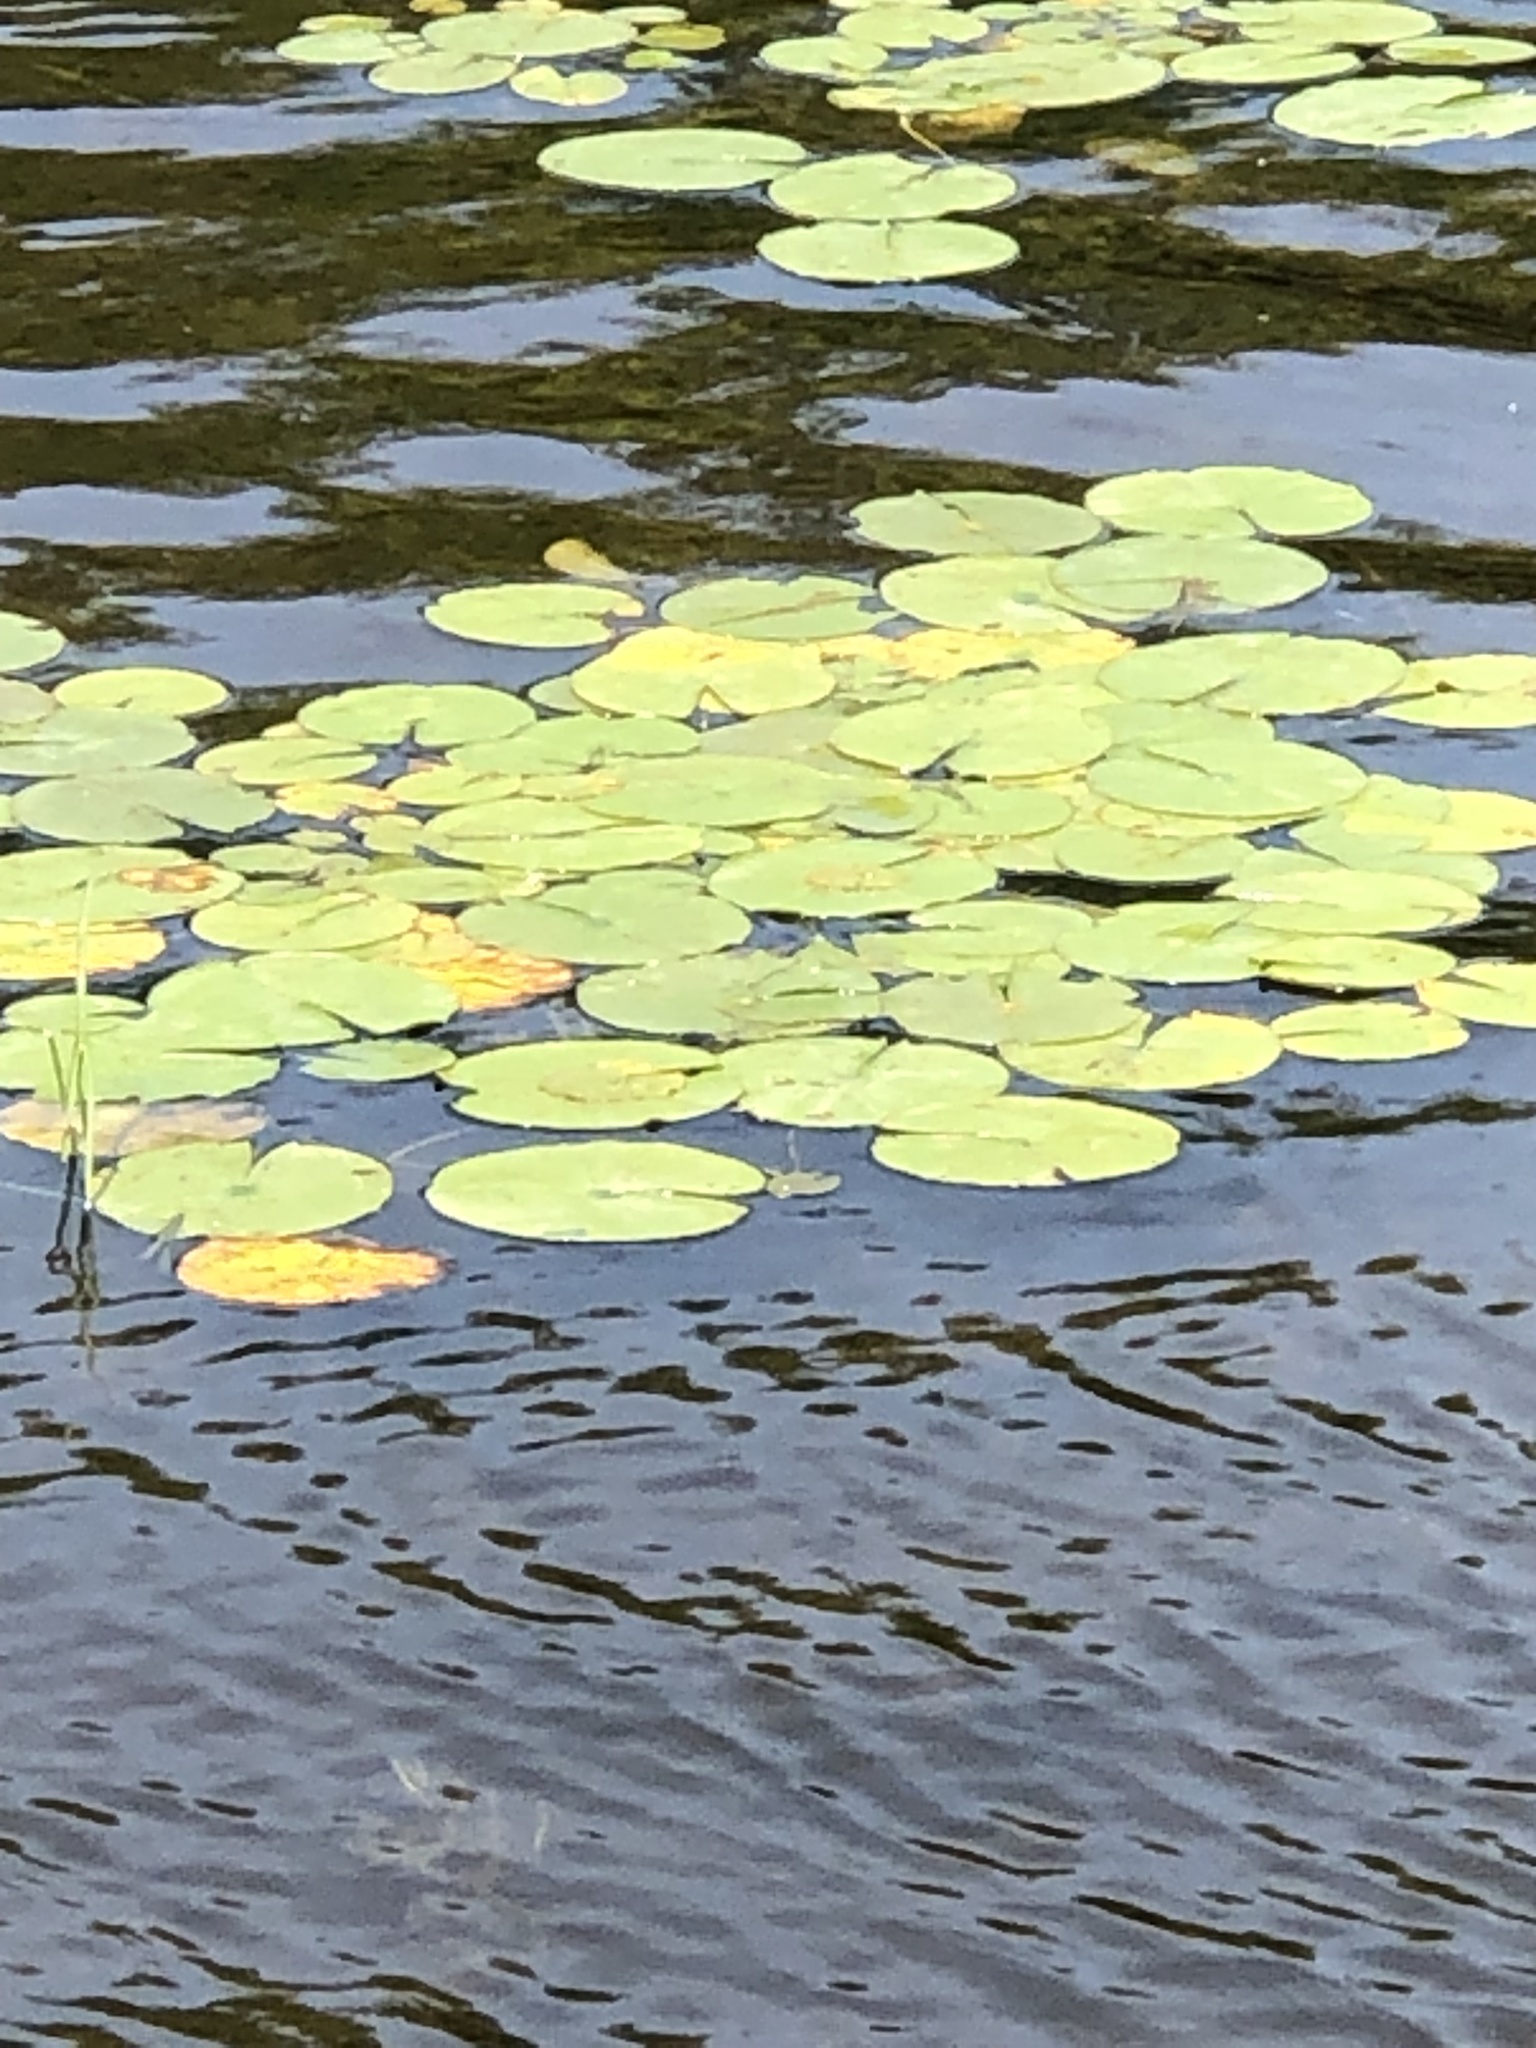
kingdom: Plantae
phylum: Tracheophyta
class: Magnoliopsida
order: Nymphaeales
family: Nymphaeaceae
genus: Nymphaea
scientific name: Nymphaea odorata
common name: Fragrant water-lily
